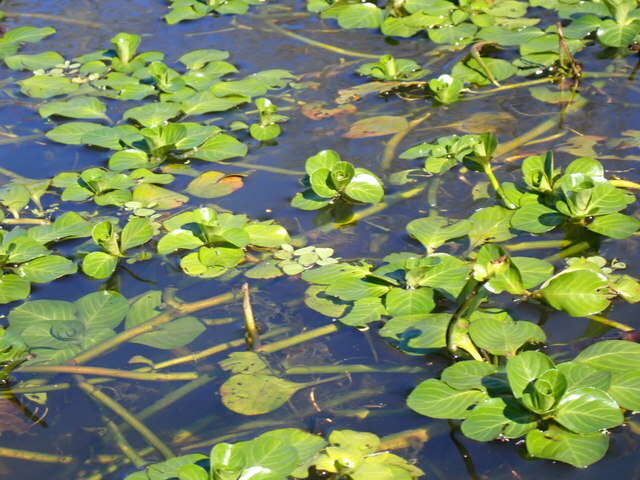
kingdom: Plantae
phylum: Tracheophyta
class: Magnoliopsida
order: Myrtales
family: Onagraceae
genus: Ludwigia
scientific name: Ludwigia peploides
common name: Floating primrose-willow
